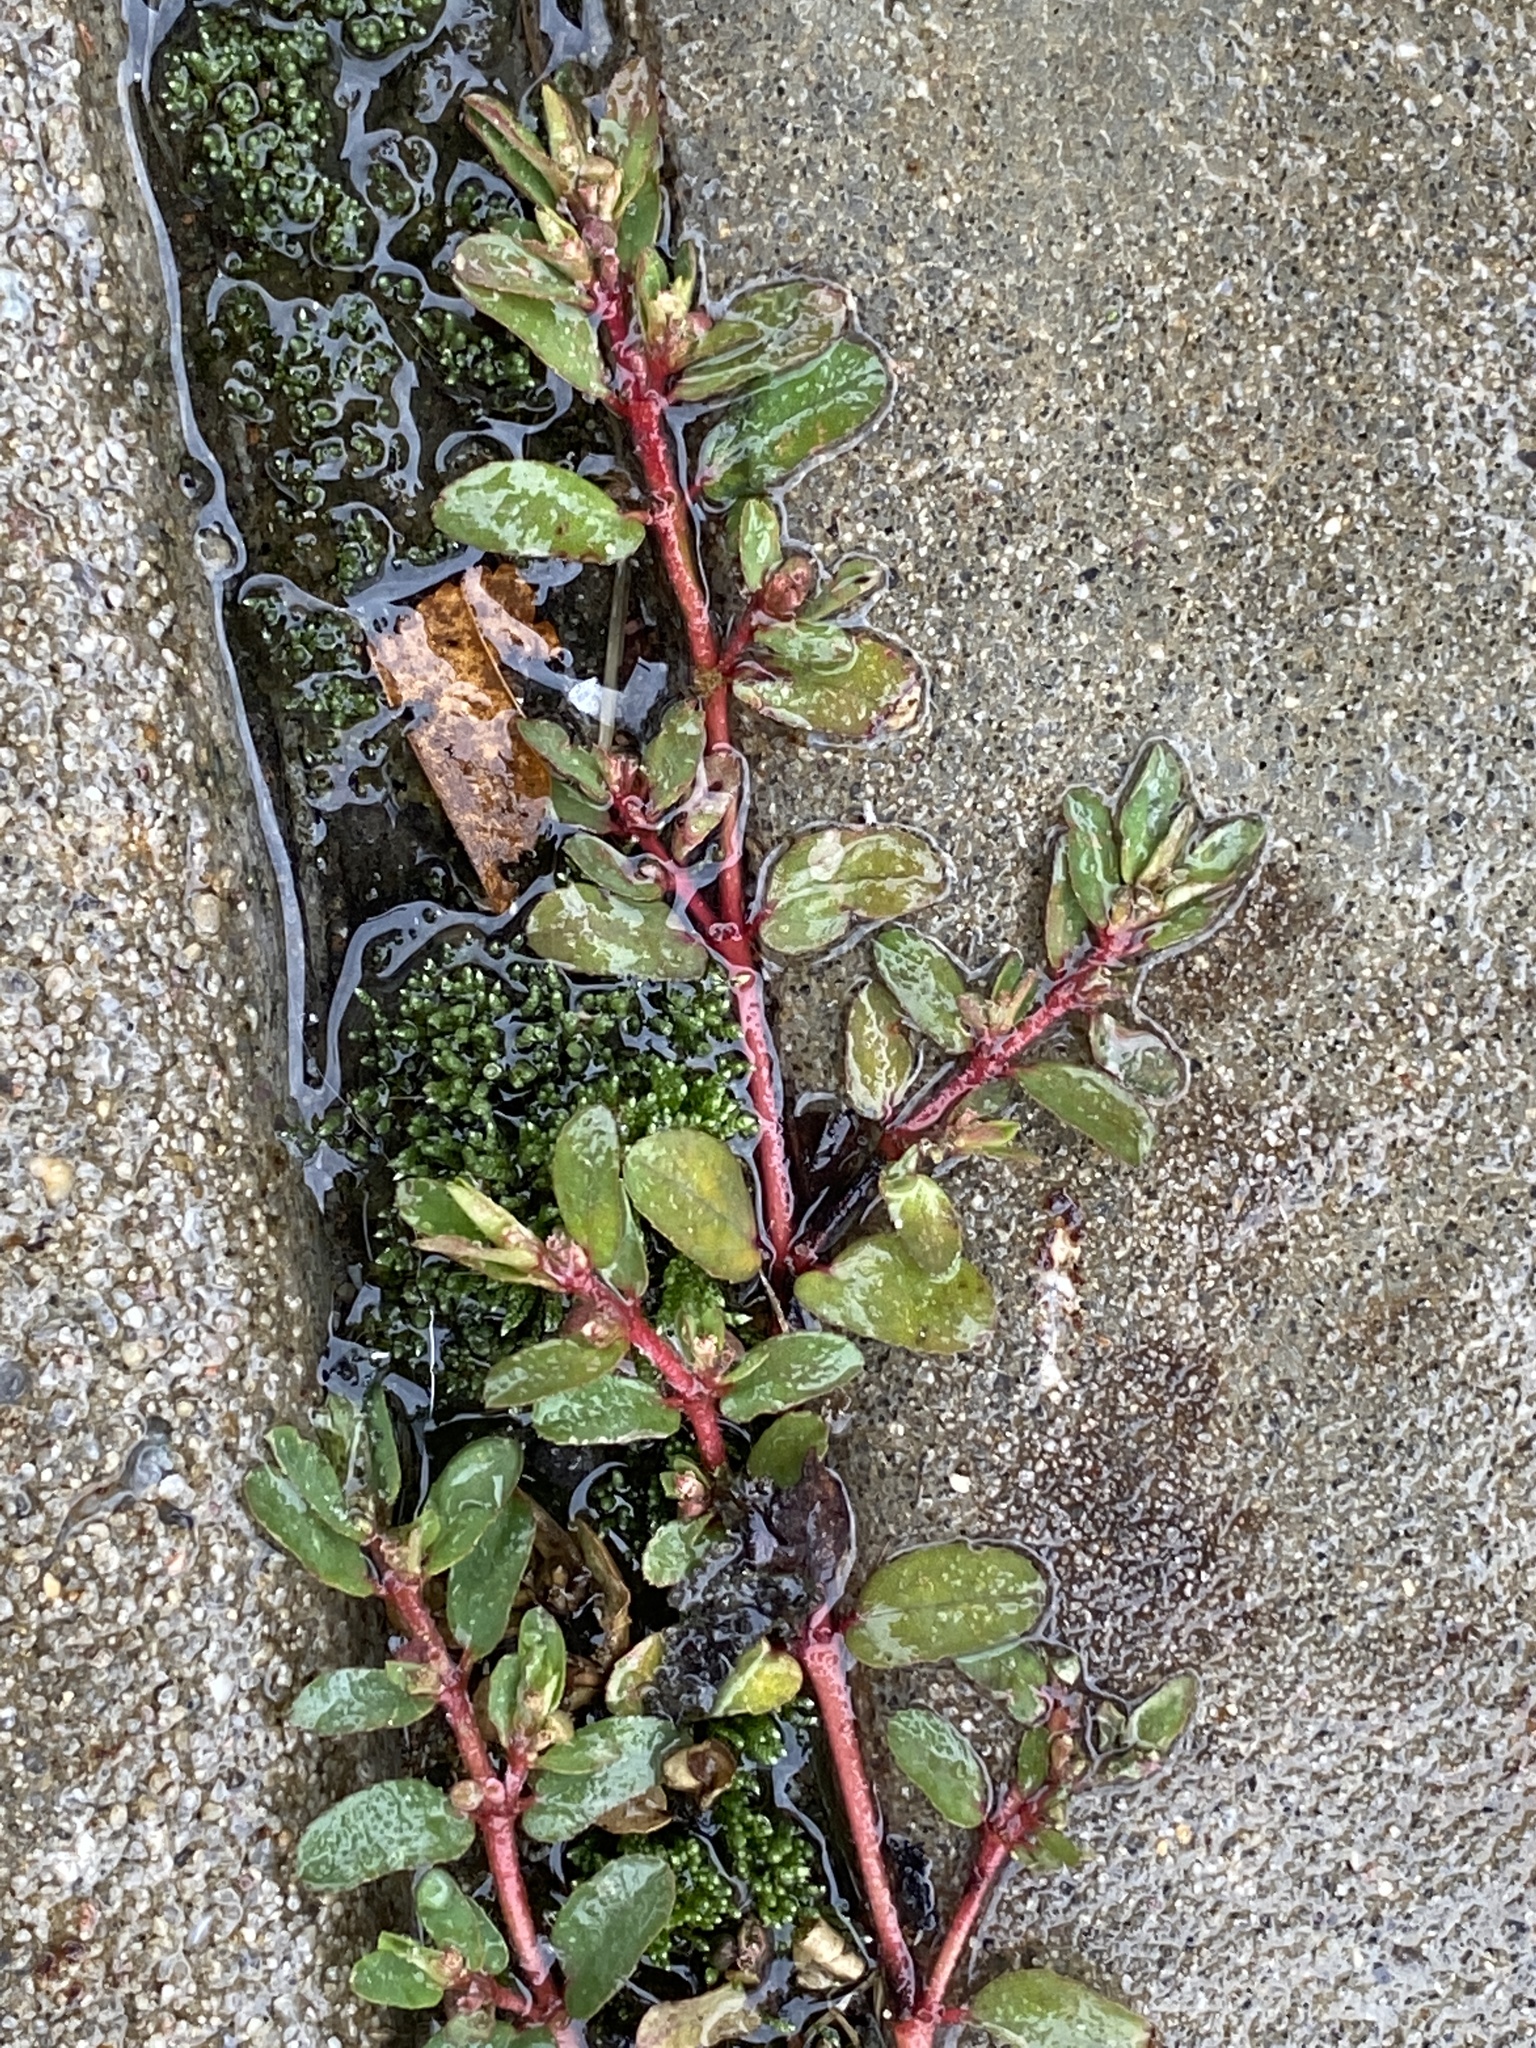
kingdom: Plantae
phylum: Tracheophyta
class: Magnoliopsida
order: Malpighiales
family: Euphorbiaceae
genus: Euphorbia
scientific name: Euphorbia maculata
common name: Spotted spurge
